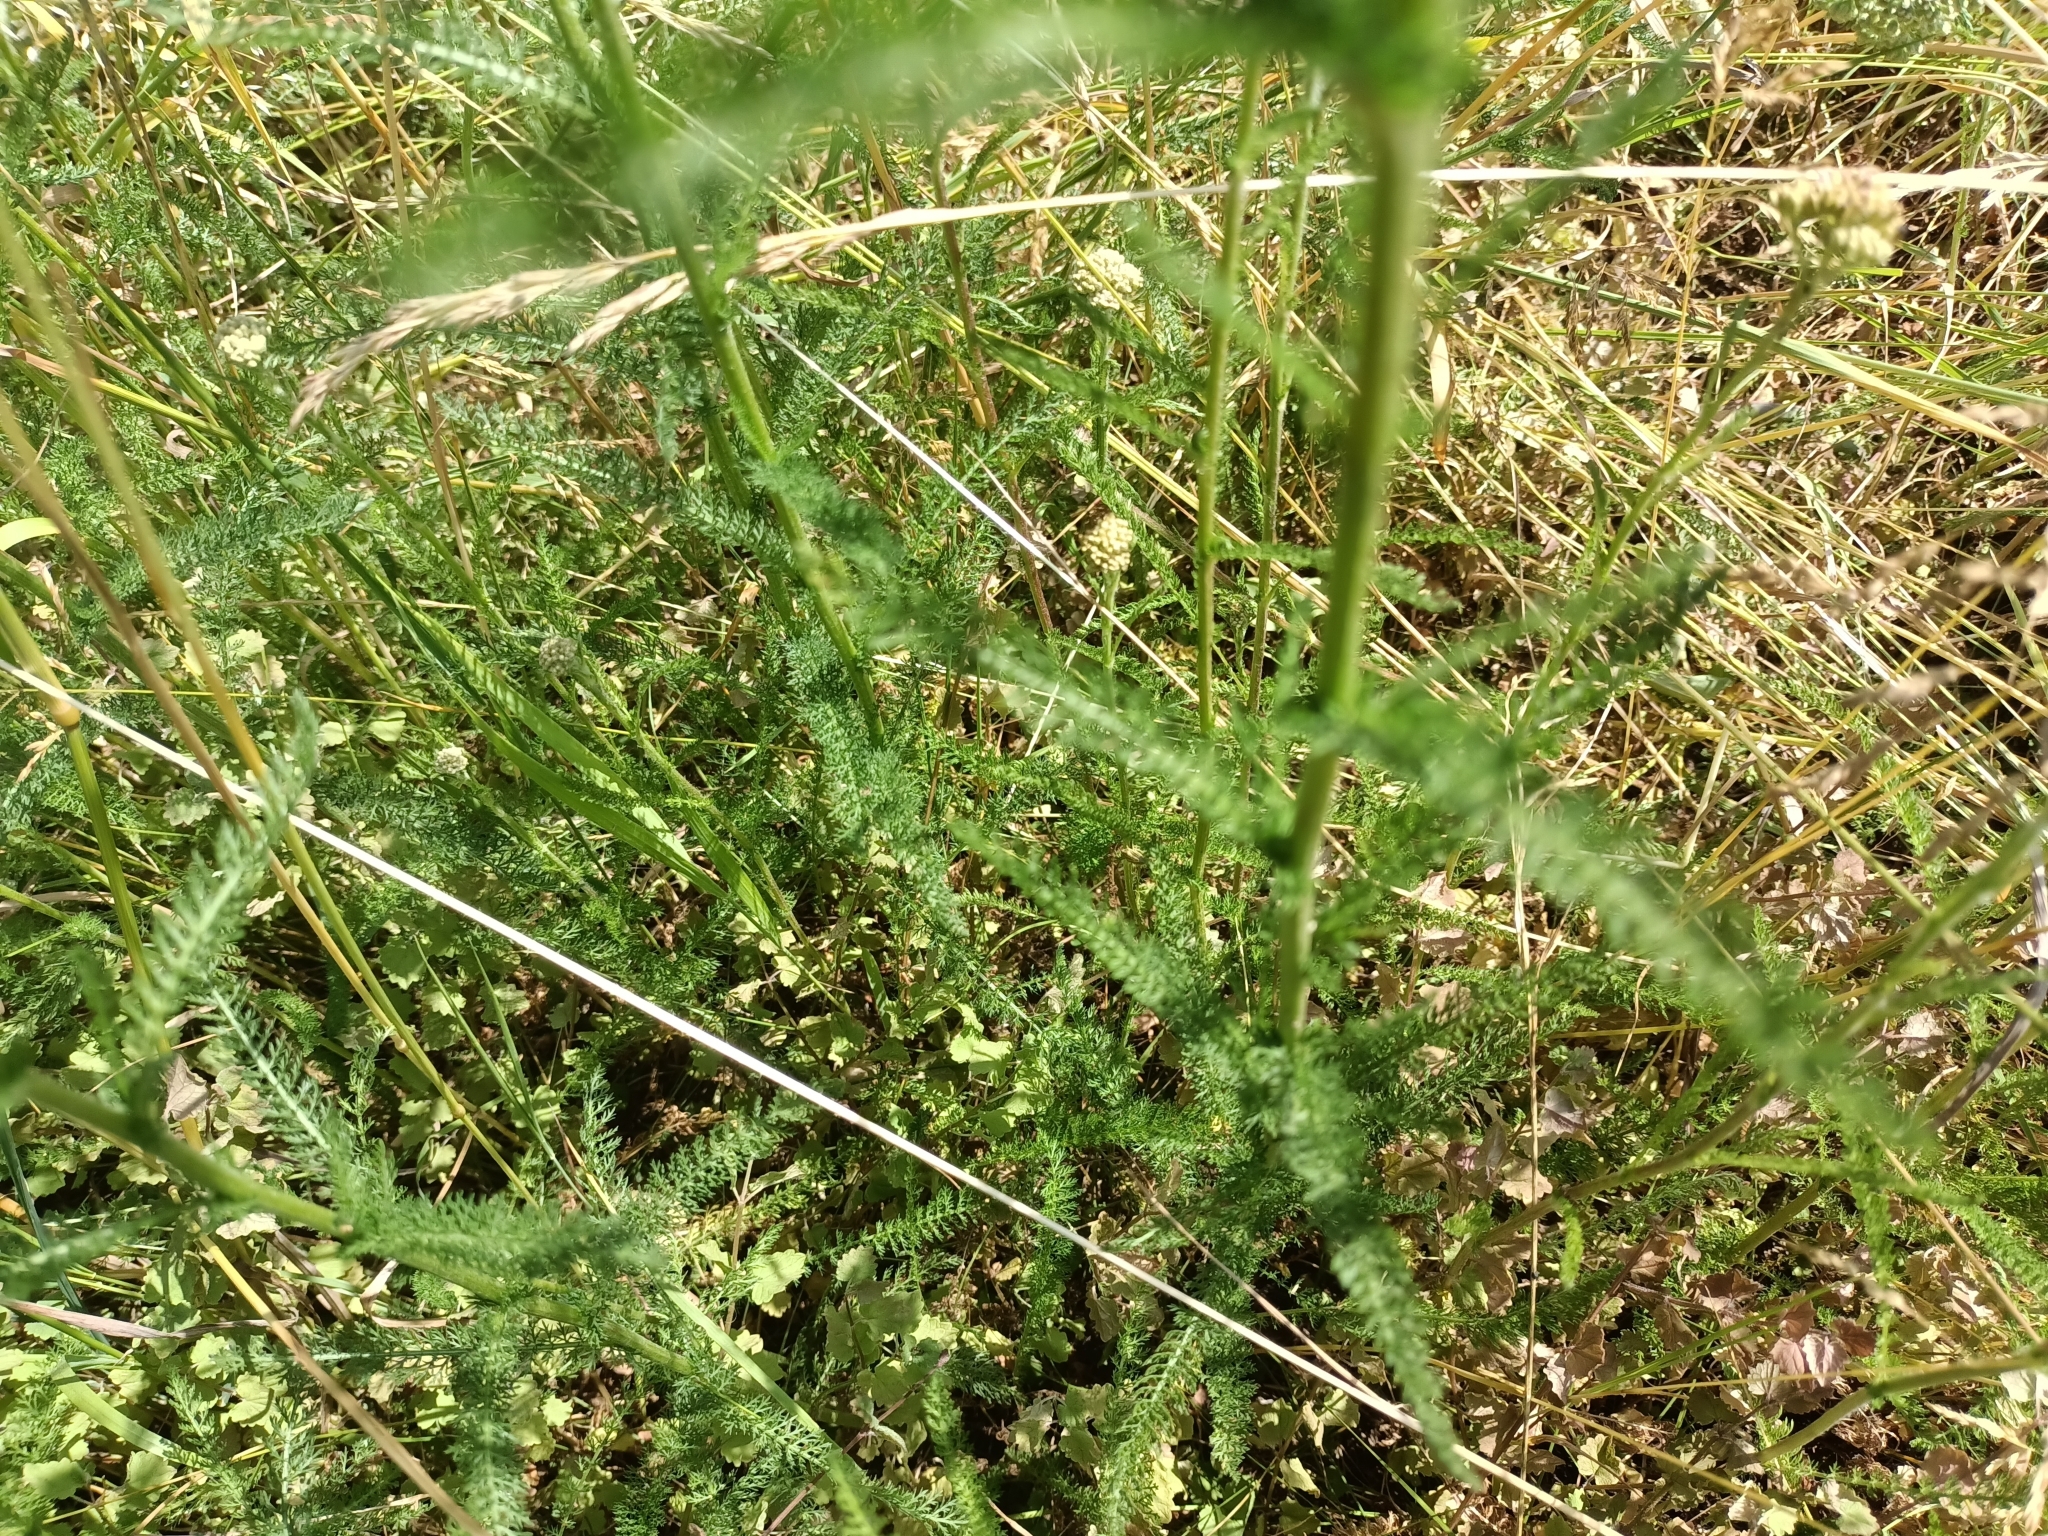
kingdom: Plantae
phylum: Tracheophyta
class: Magnoliopsida
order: Asterales
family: Asteraceae
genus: Achillea
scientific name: Achillea millefolium
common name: Yarrow
